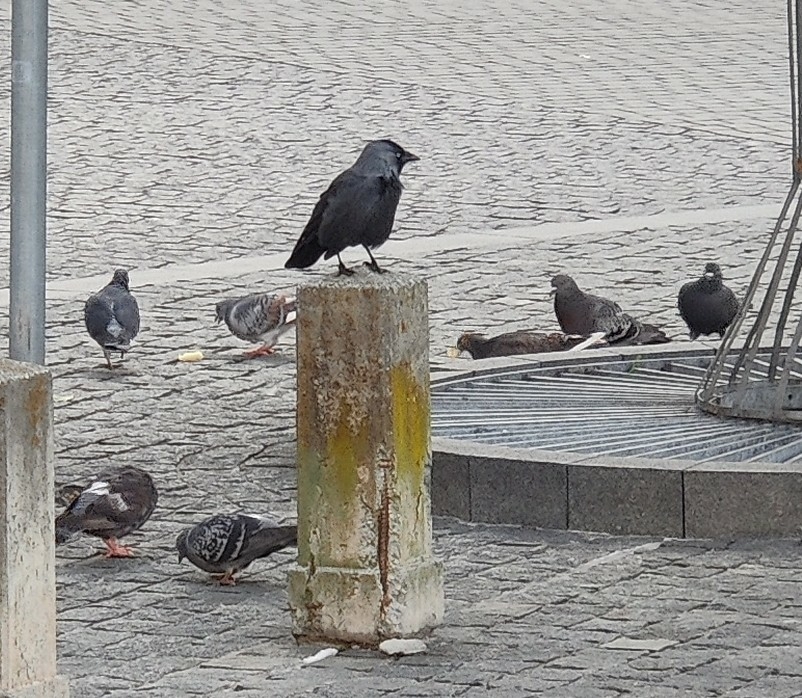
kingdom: Animalia
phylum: Chordata
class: Aves
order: Passeriformes
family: Corvidae
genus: Coloeus
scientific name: Coloeus monedula
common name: Western jackdaw
